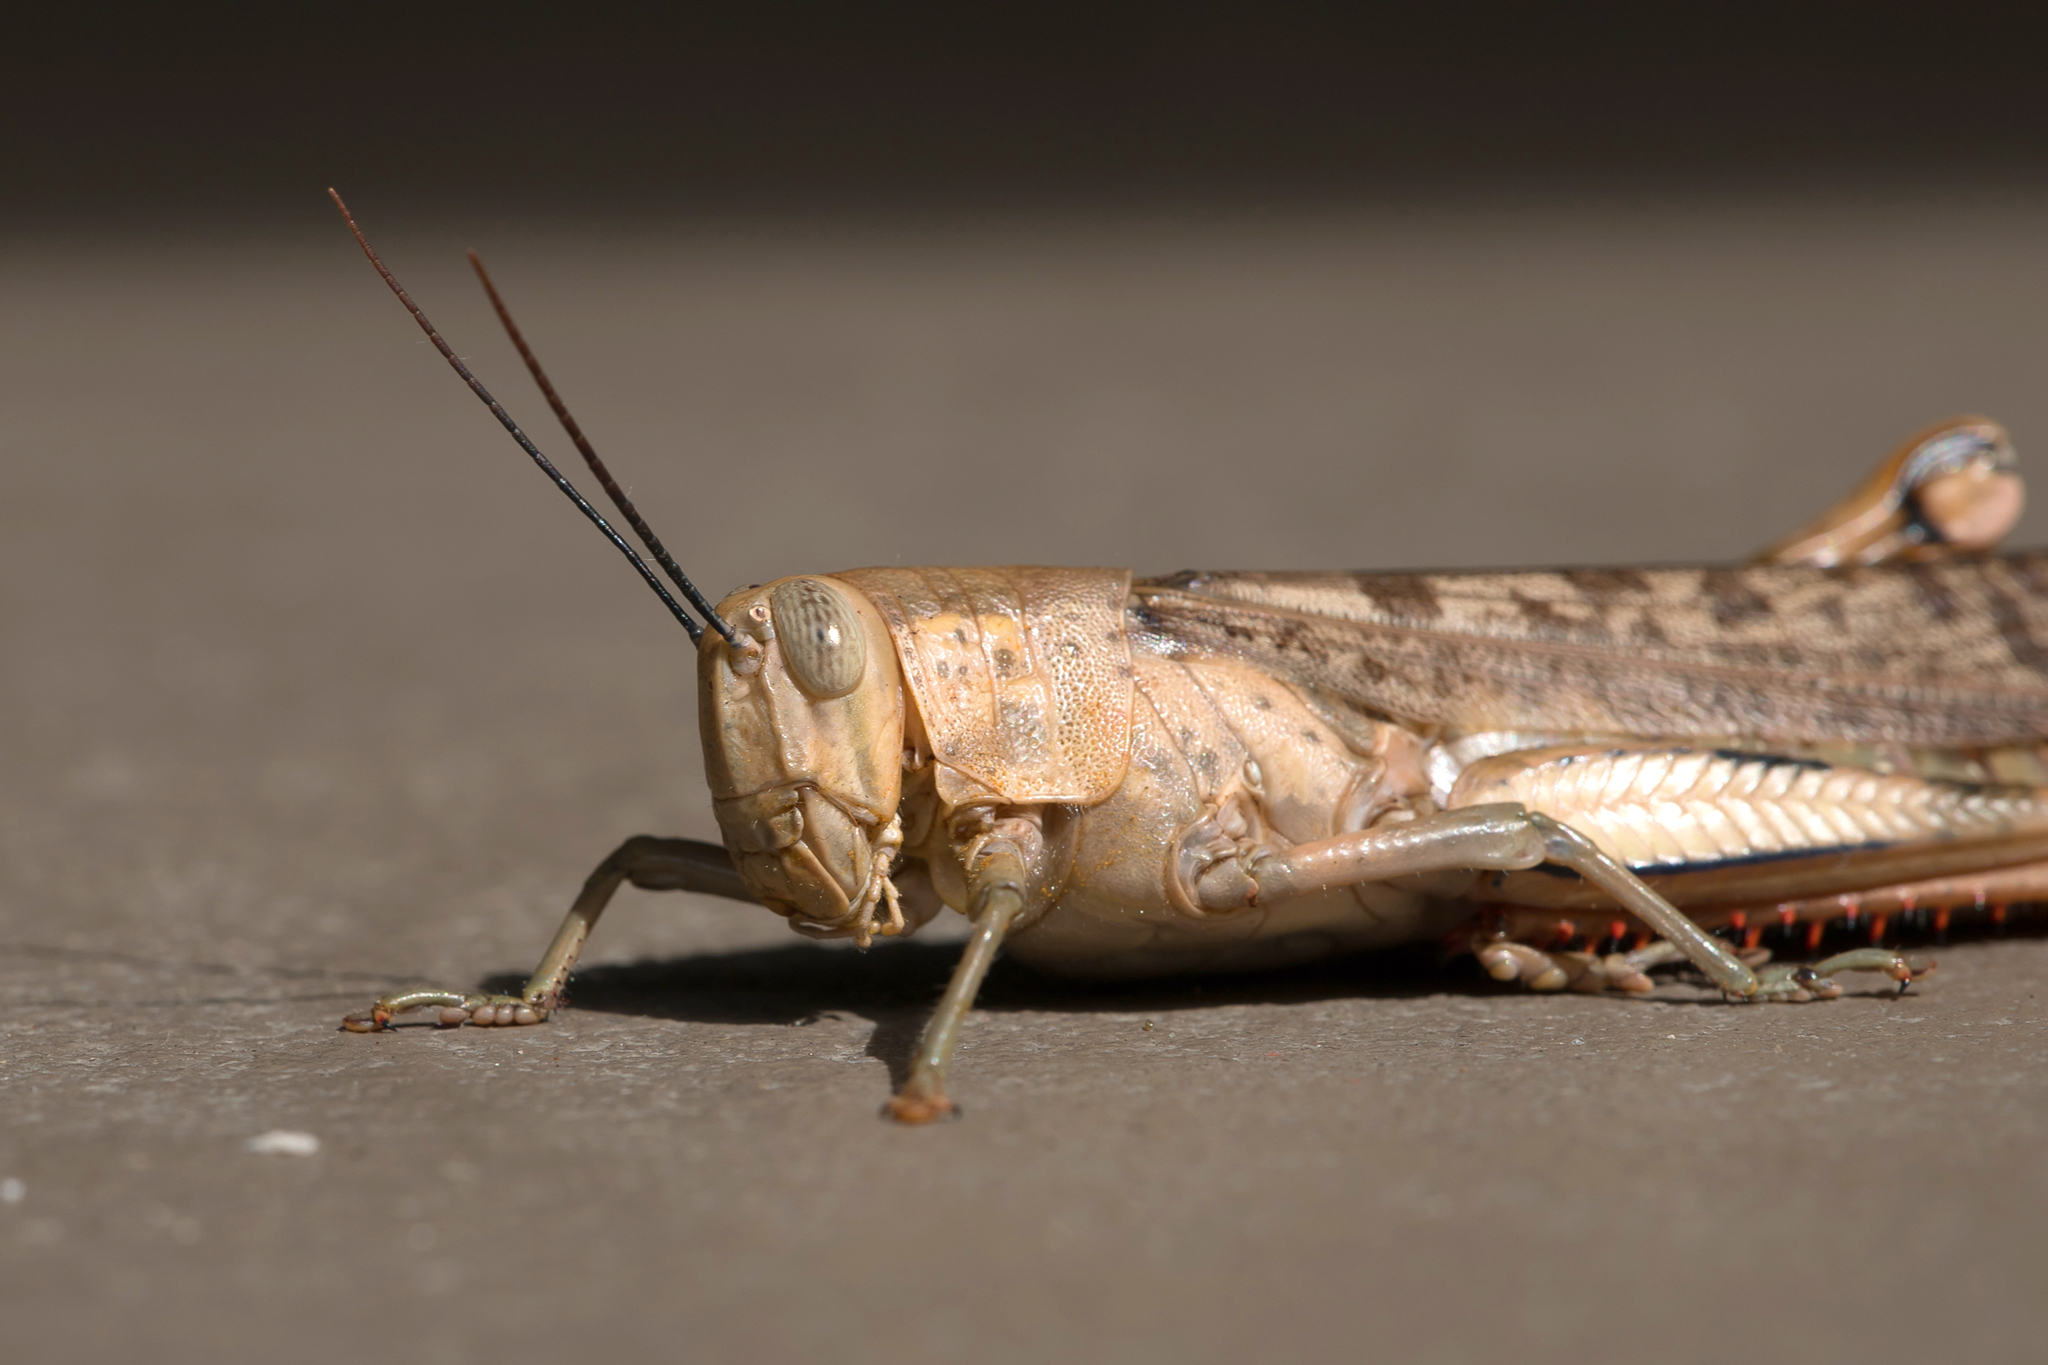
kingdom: Animalia
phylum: Arthropoda
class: Insecta
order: Orthoptera
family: Acrididae
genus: Valanga
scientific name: Valanga irregularis
